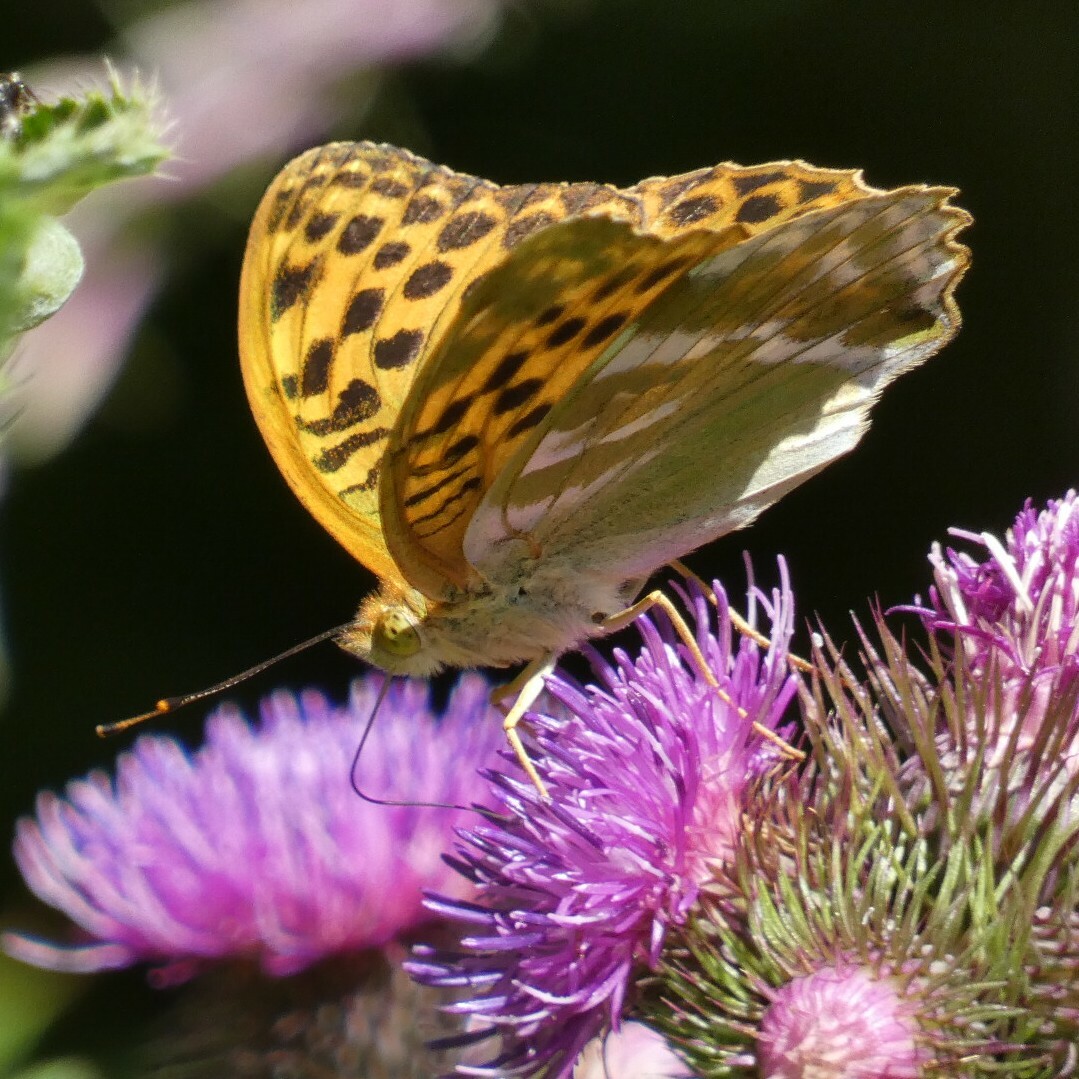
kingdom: Animalia
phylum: Arthropoda
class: Insecta
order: Lepidoptera
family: Nymphalidae
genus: Argynnis
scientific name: Argynnis paphia
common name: Silver-washed fritillary
